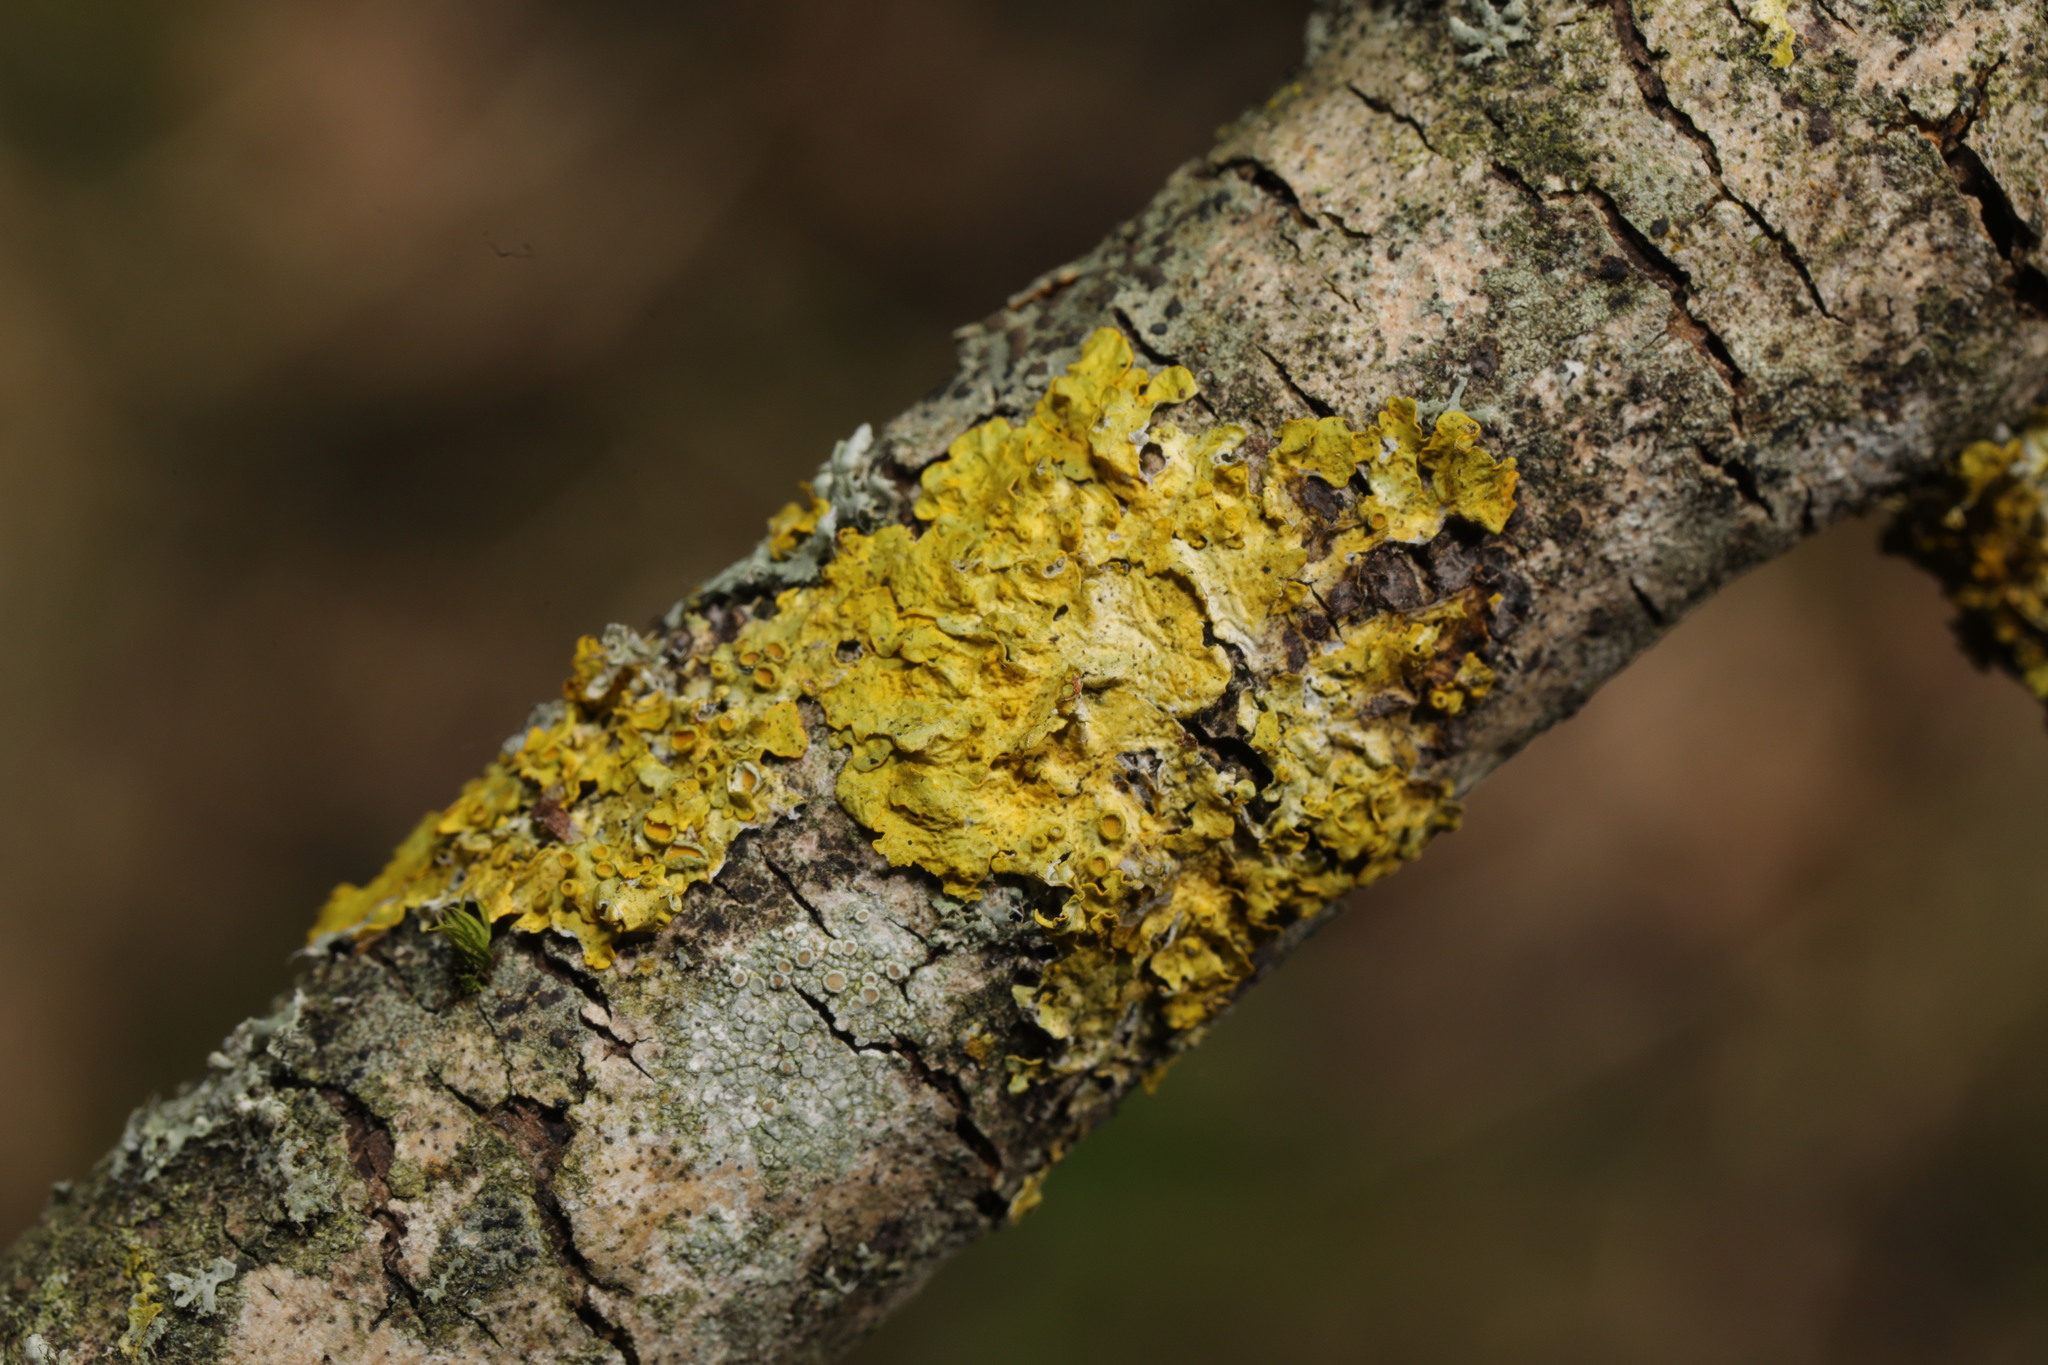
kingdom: Fungi
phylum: Ascomycota
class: Lecanoromycetes
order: Teloschistales
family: Teloschistaceae
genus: Xanthoria
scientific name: Xanthoria parietina
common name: Common orange lichen
